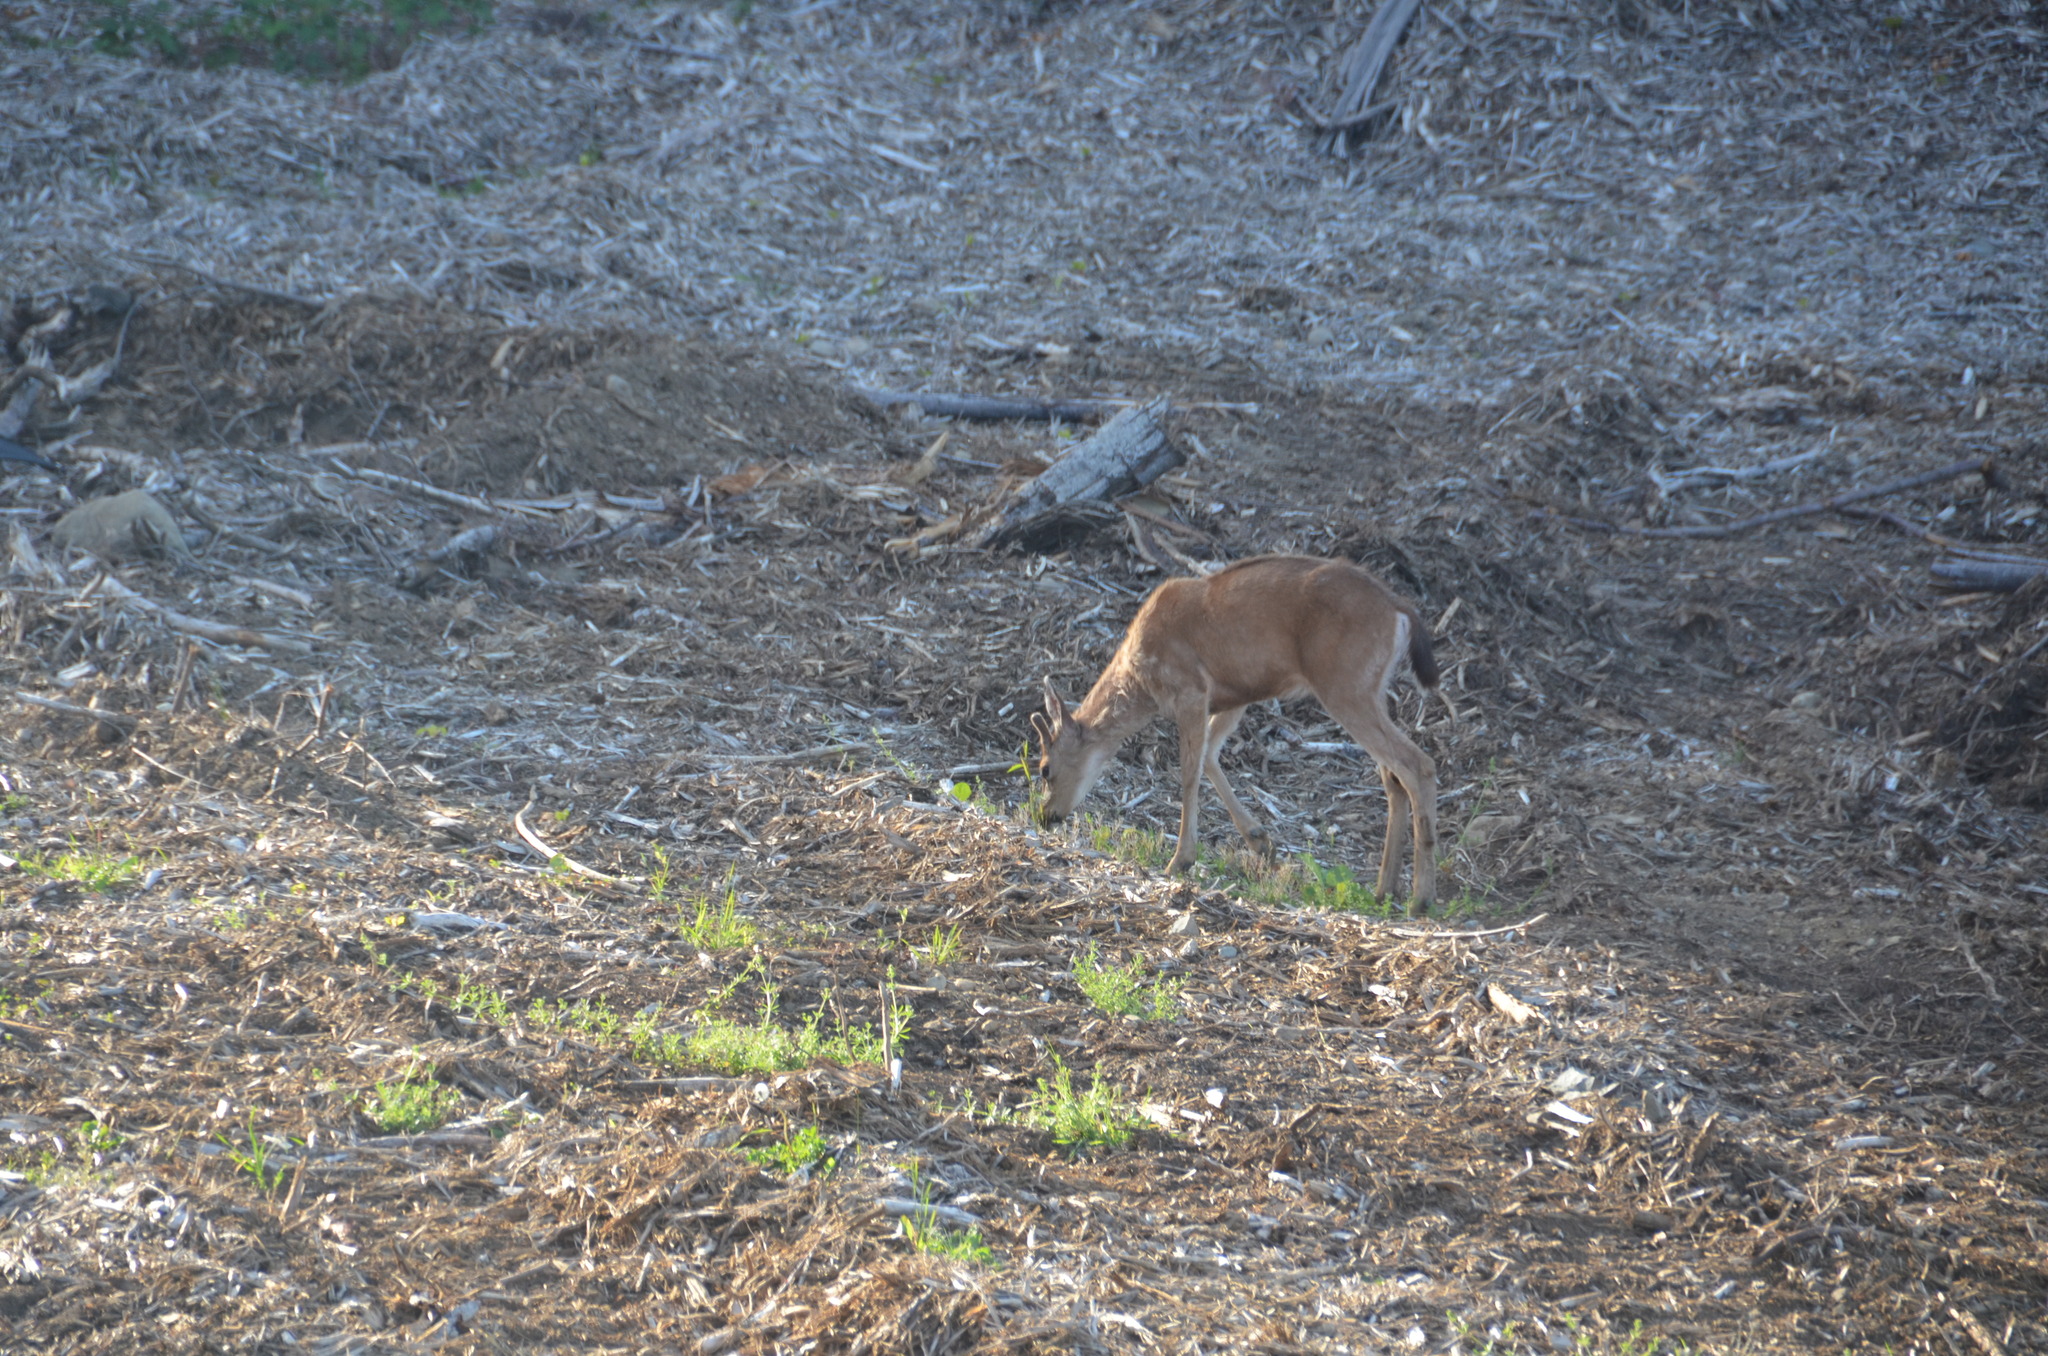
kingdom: Animalia
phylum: Chordata
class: Mammalia
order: Artiodactyla
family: Cervidae
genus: Odocoileus
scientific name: Odocoileus hemionus
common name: Mule deer
